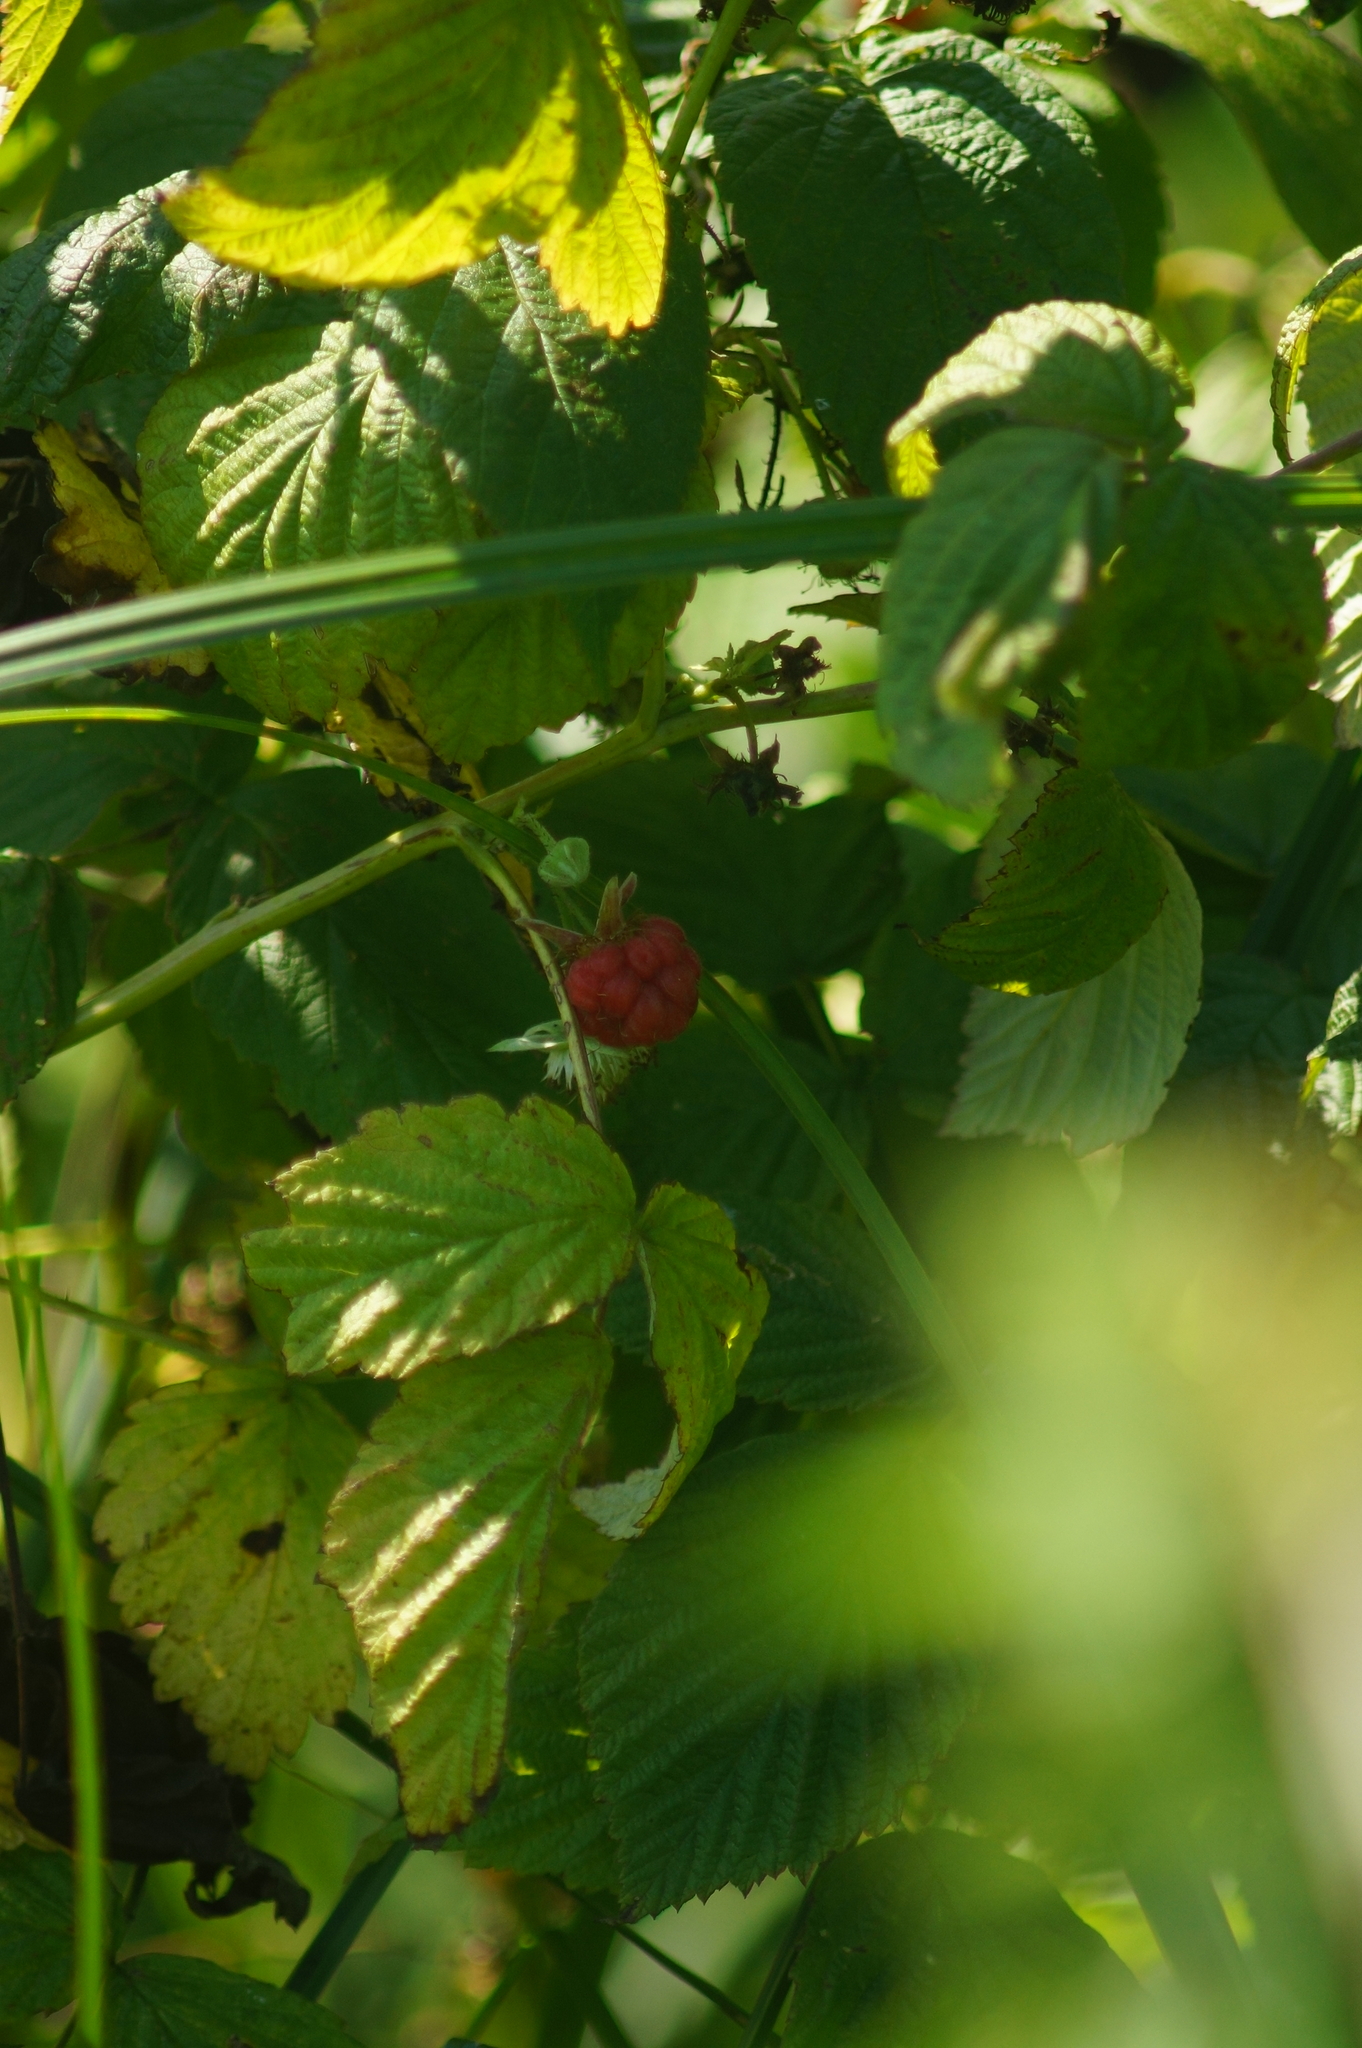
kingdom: Plantae
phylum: Tracheophyta
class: Magnoliopsida
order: Rosales
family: Rosaceae
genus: Rubus
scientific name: Rubus idaeus
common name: Raspberry
